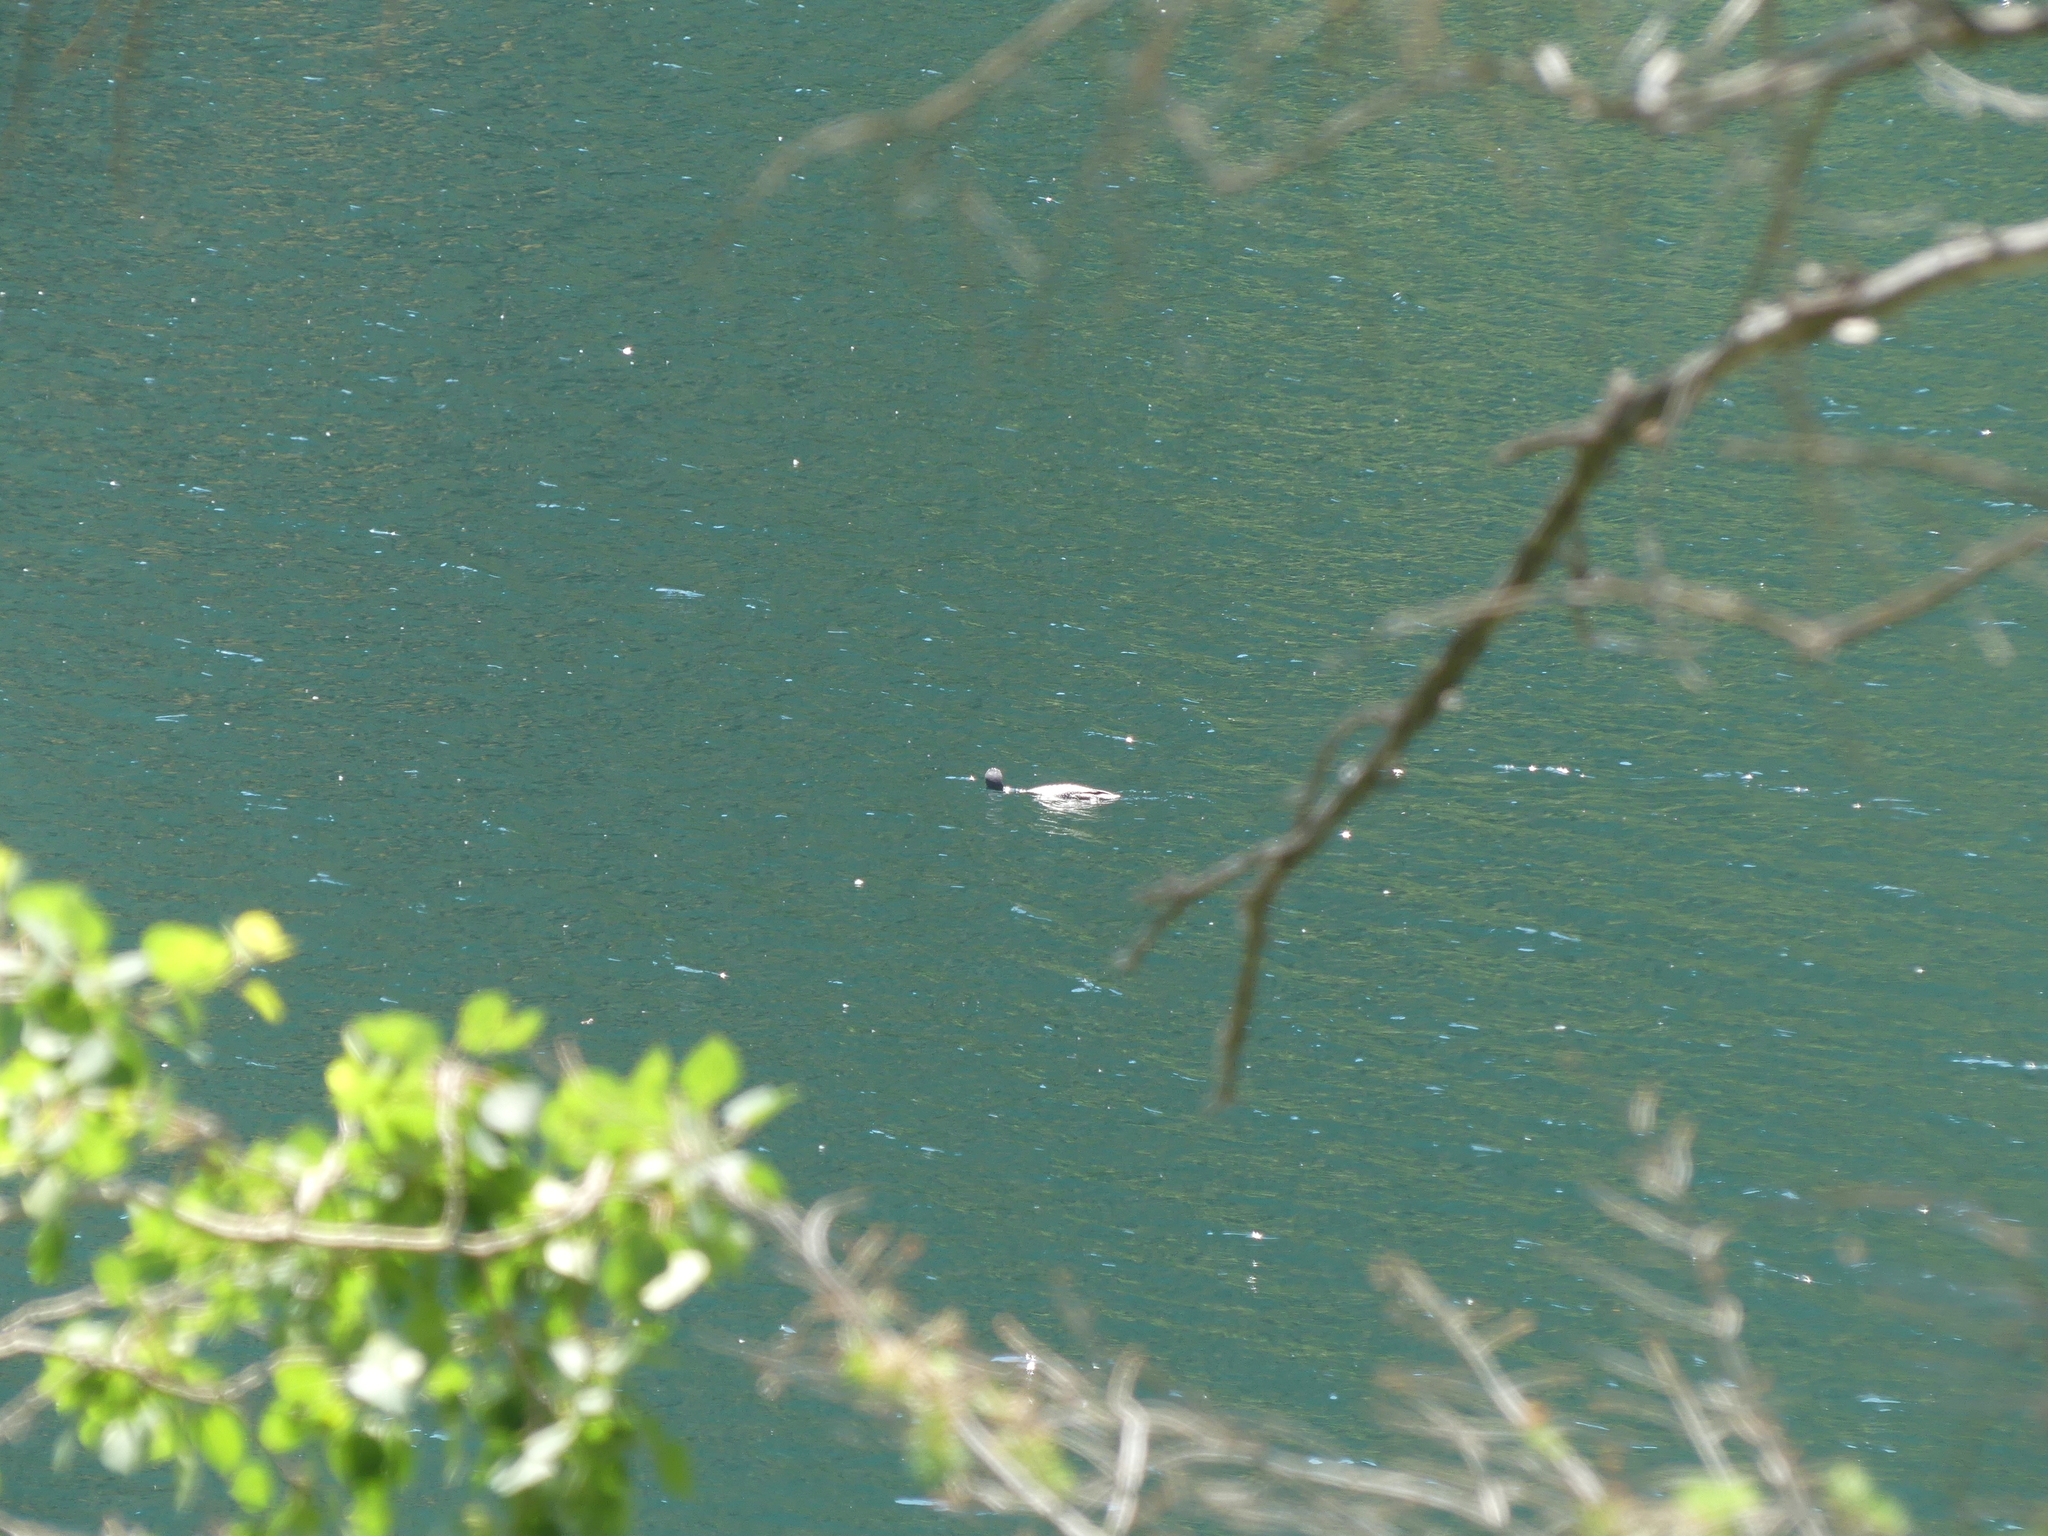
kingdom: Animalia
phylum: Chordata
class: Aves
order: Gaviiformes
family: Gaviidae
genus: Gavia
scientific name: Gavia immer
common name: Common loon
